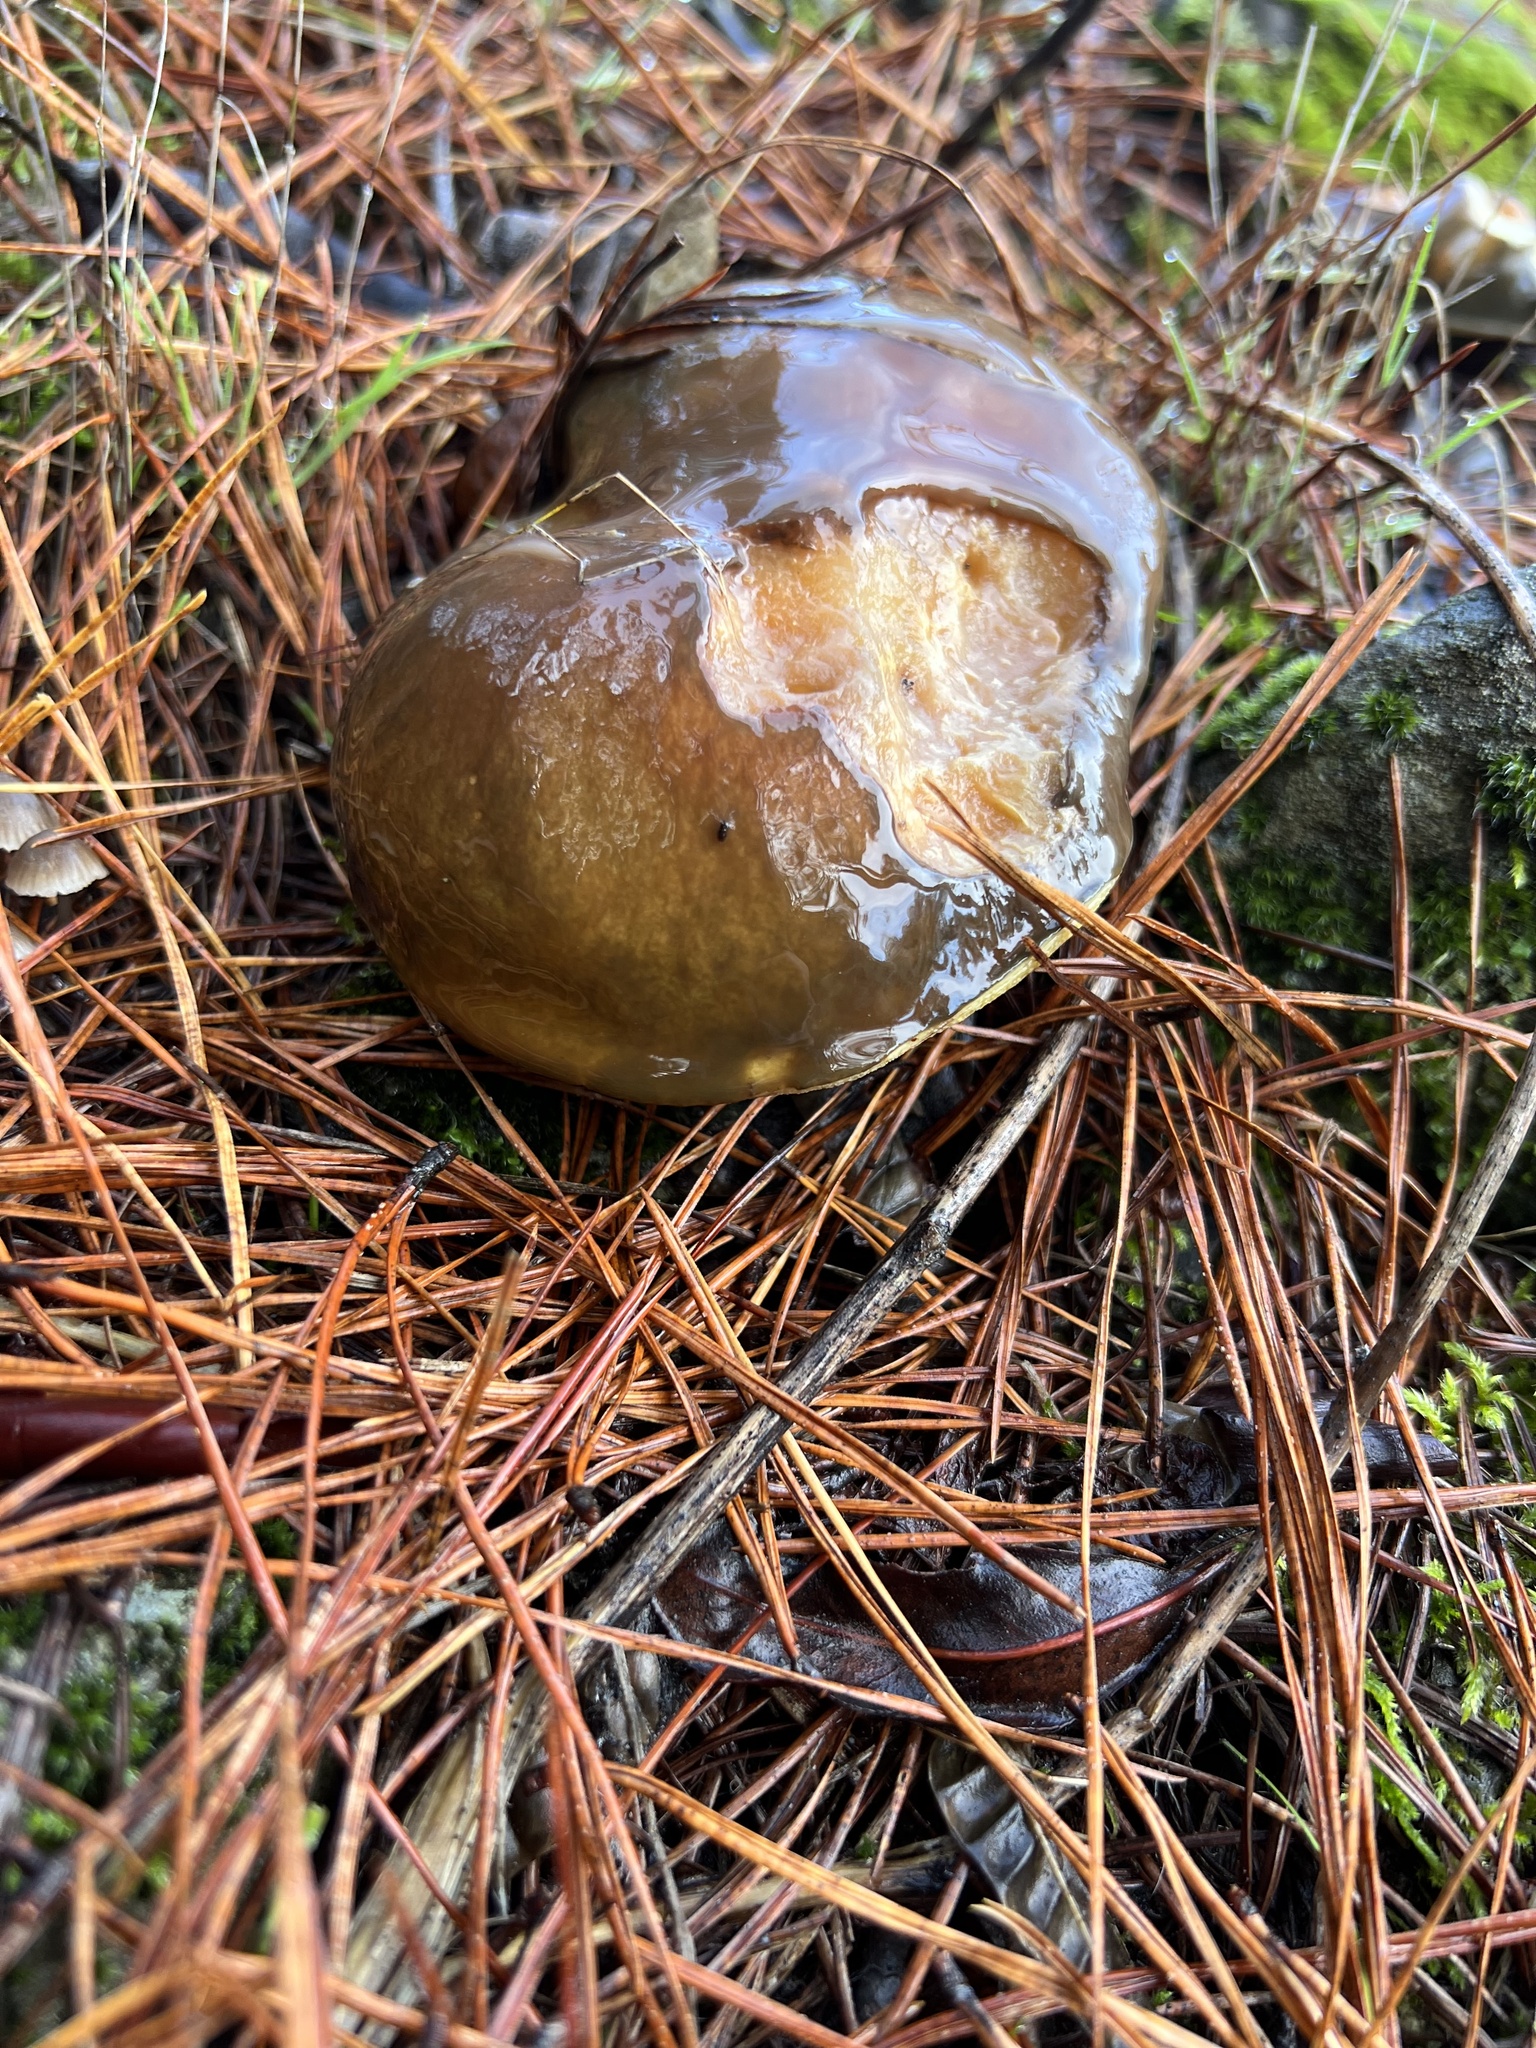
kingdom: Fungi
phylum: Basidiomycota
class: Agaricomycetes
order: Boletales
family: Suillaceae
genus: Suillus
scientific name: Suillus pungens
